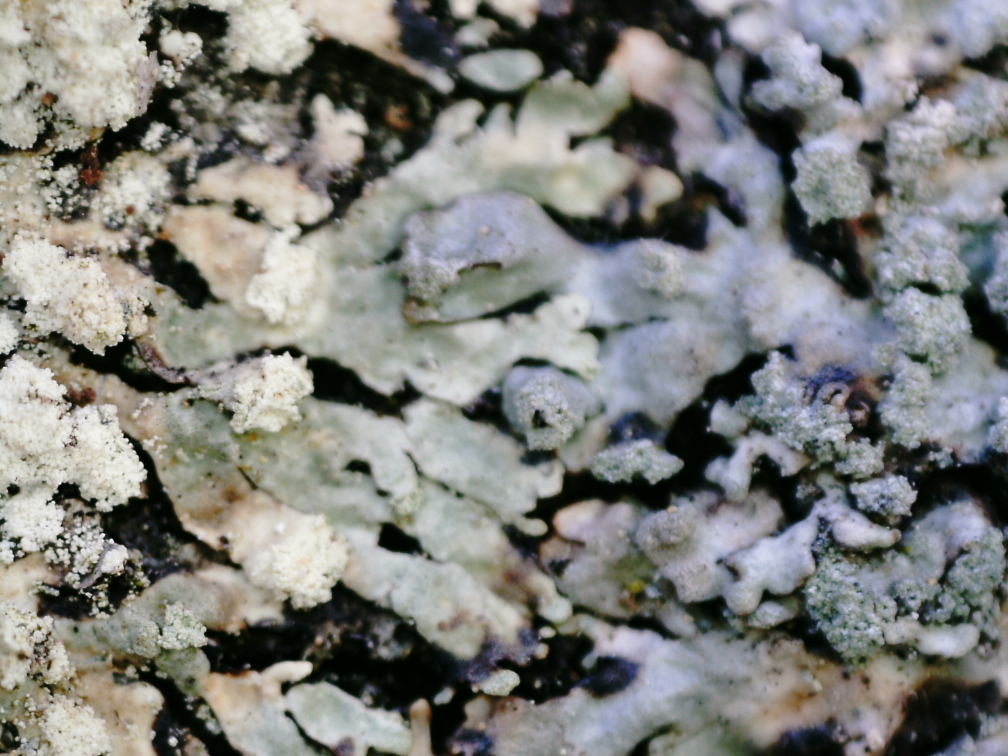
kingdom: Fungi
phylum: Ascomycota
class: Lecanoromycetes
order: Lecanorales
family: Parmeliaceae
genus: Parmeliopsis
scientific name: Parmeliopsis ambigua
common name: Green starburst lichen
